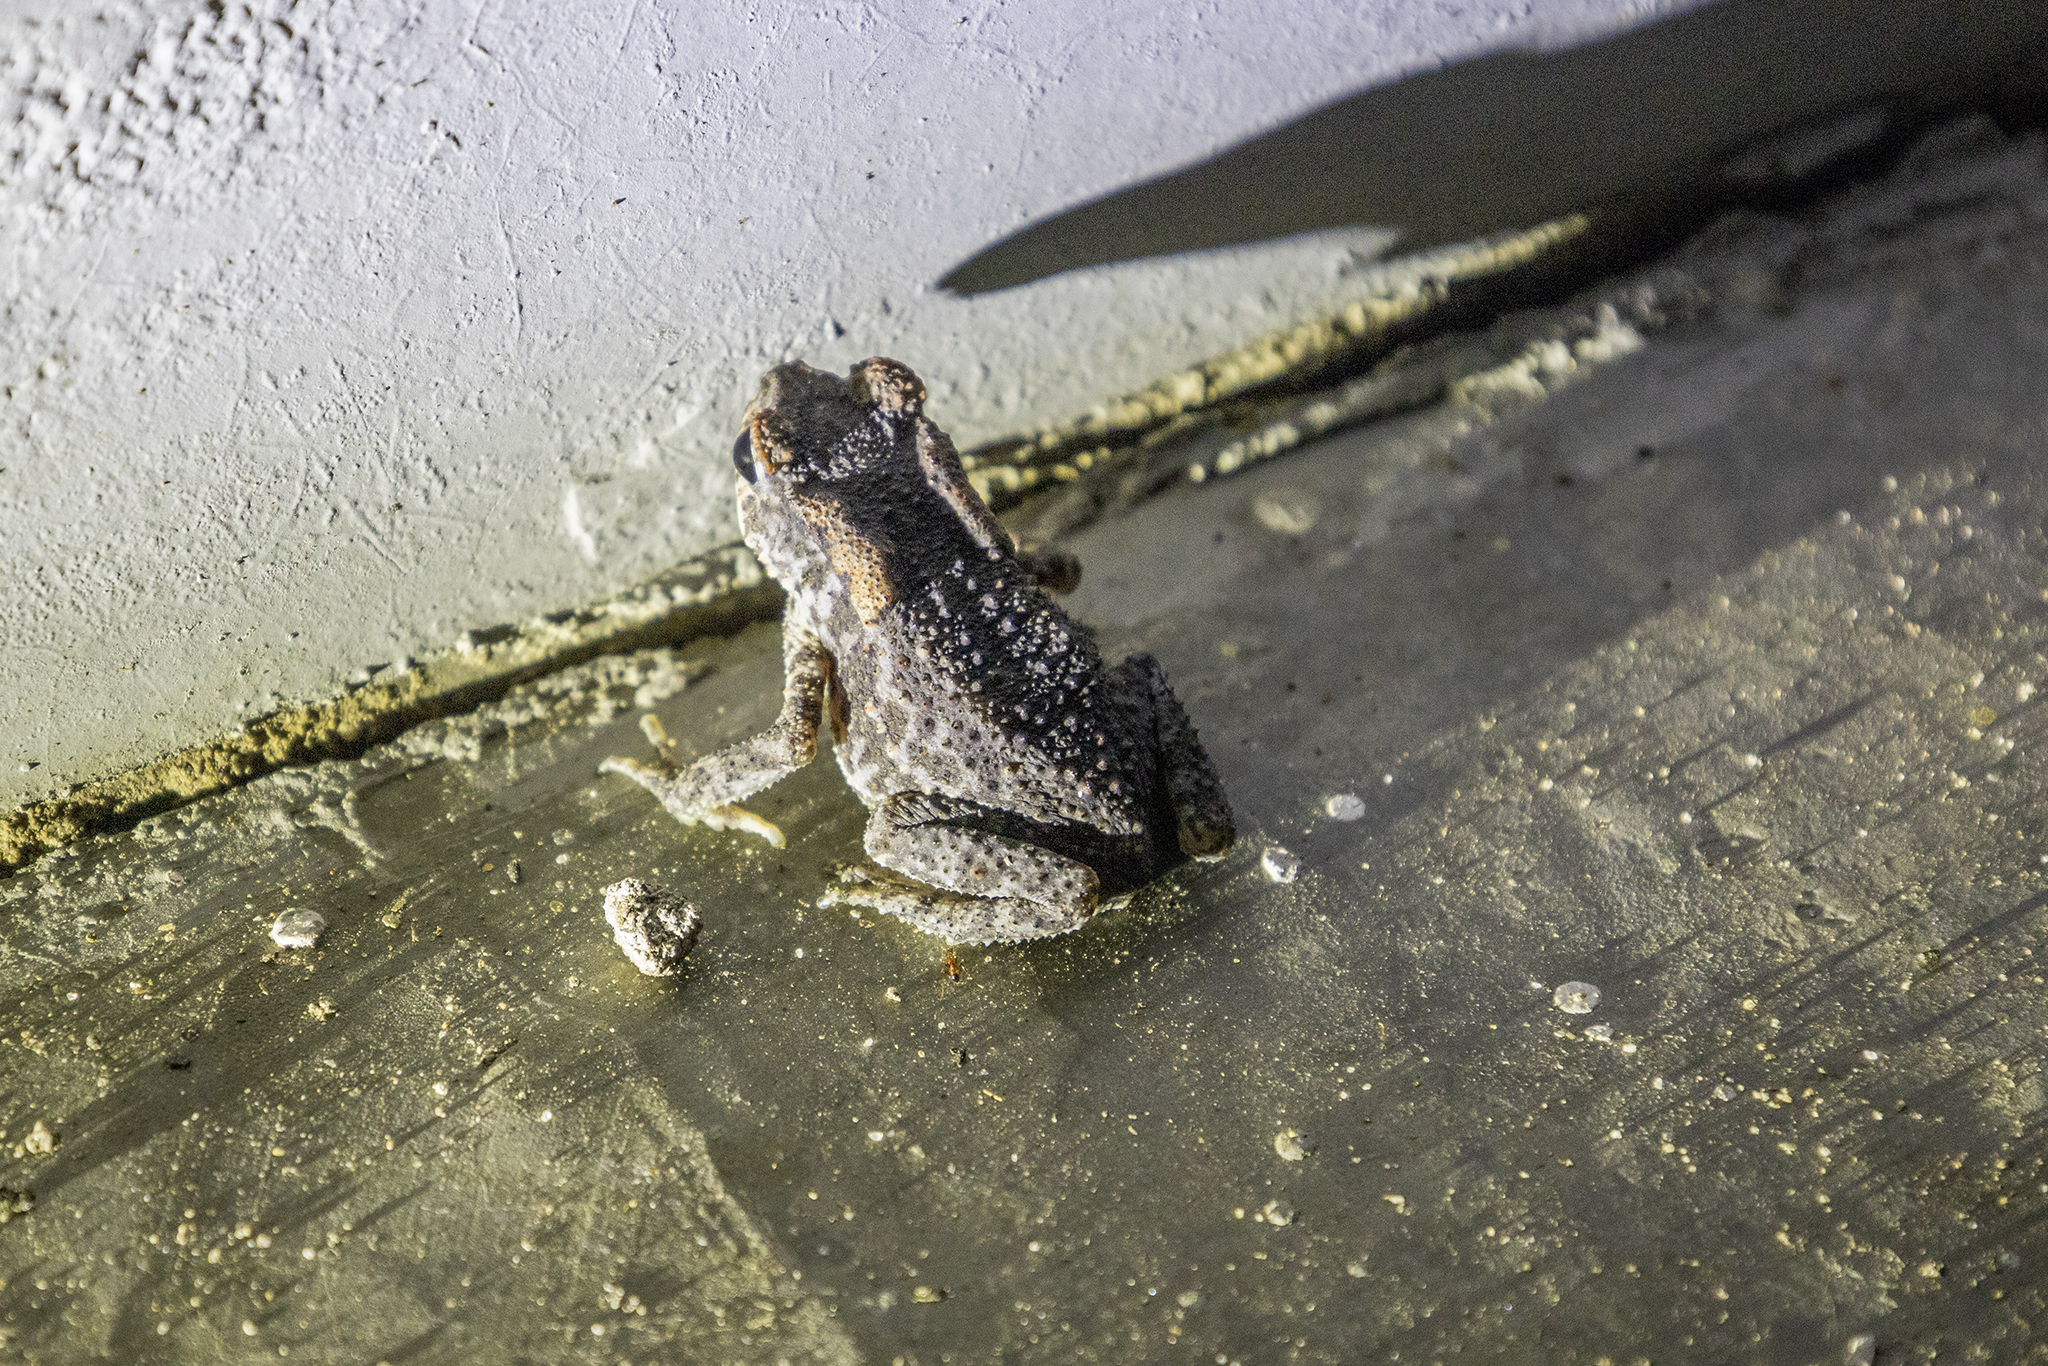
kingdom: Animalia
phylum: Chordata
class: Amphibia
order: Anura
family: Bufonidae
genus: Duttaphrynus
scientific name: Duttaphrynus melanostictus
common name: Common sunda toad
